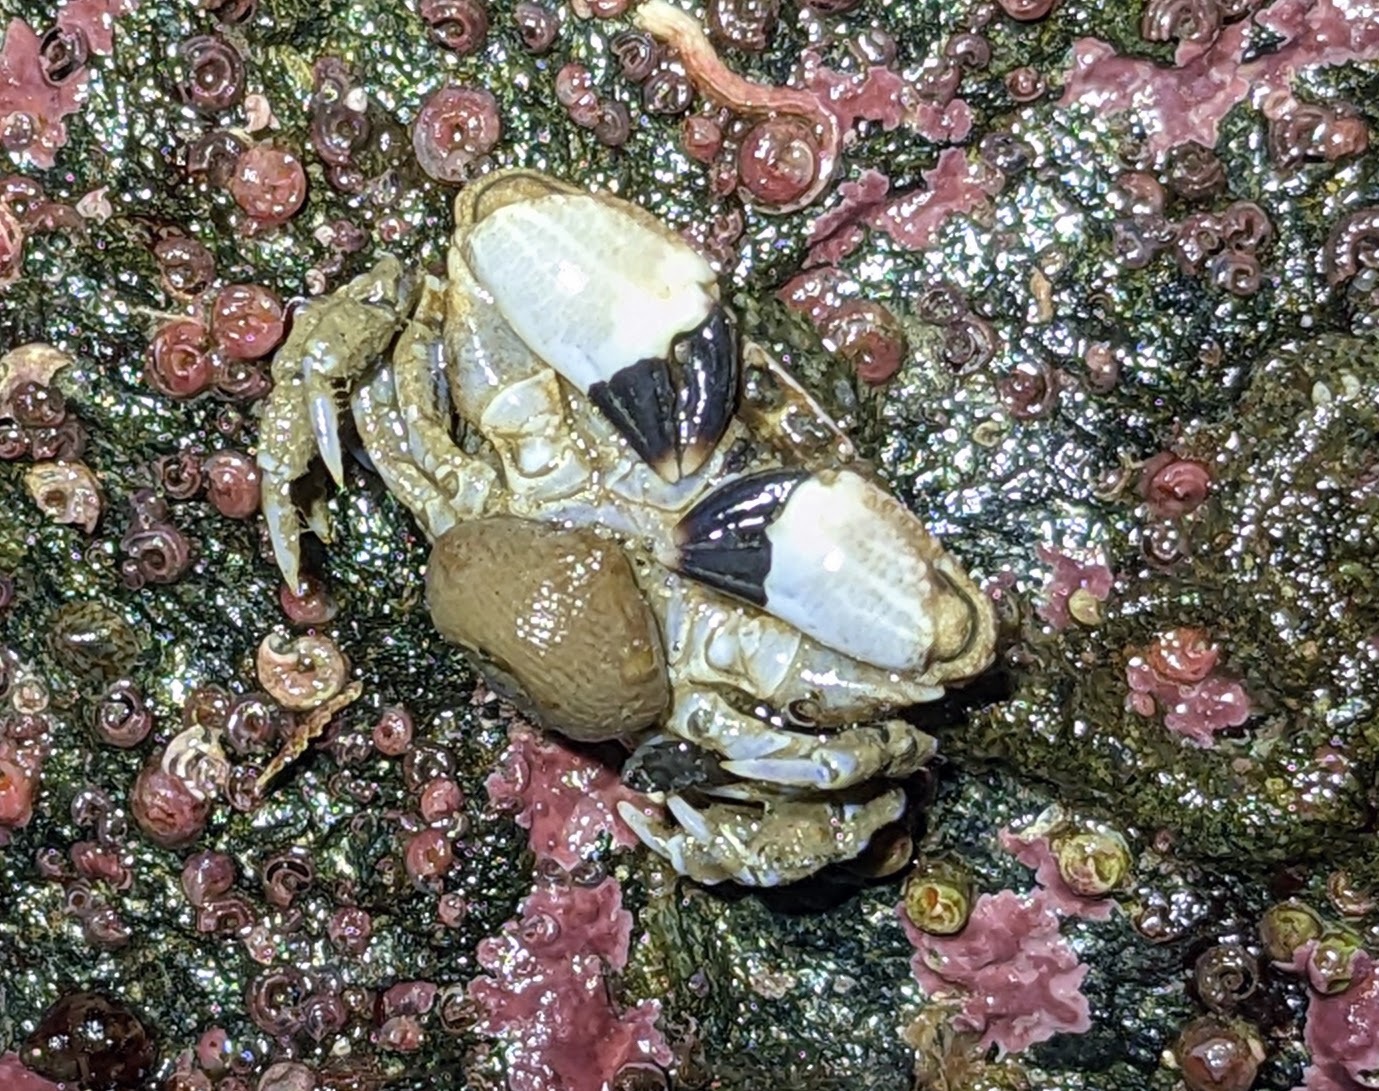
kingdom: Animalia
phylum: Arthropoda
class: Malacostraca
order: Decapoda
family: Panopeidae
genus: Lophopanopeus
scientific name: Lophopanopeus bellus
